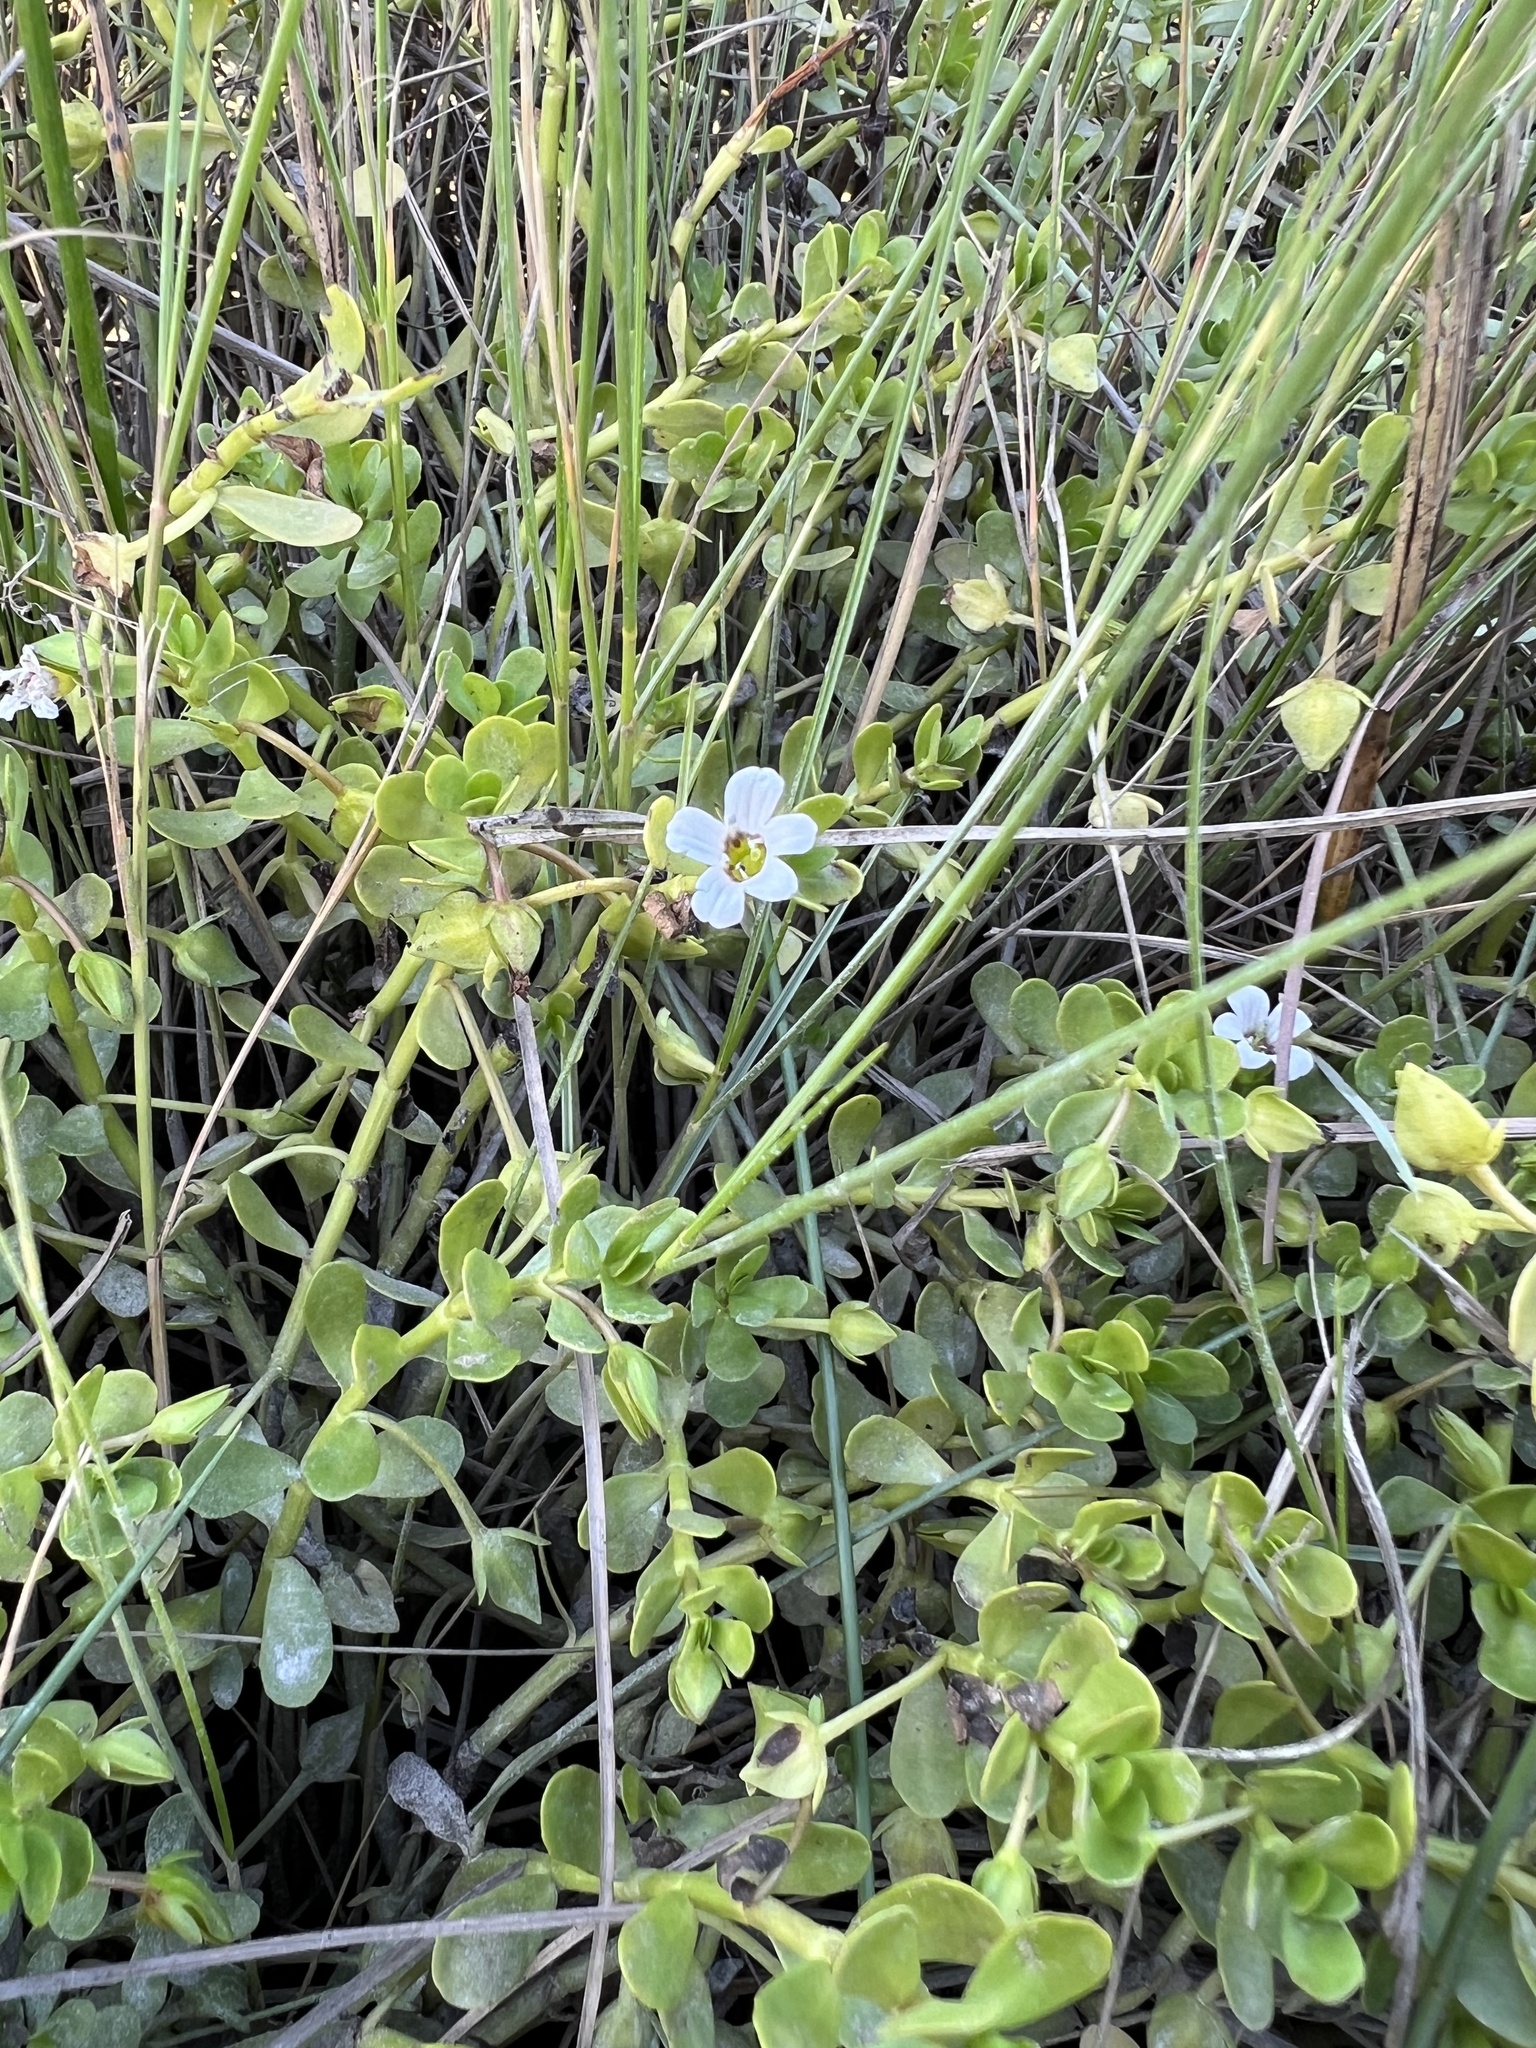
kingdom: Plantae
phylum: Tracheophyta
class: Magnoliopsida
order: Lamiales
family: Plantaginaceae
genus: Bacopa
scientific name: Bacopa monnieri
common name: Indian-pennywort
